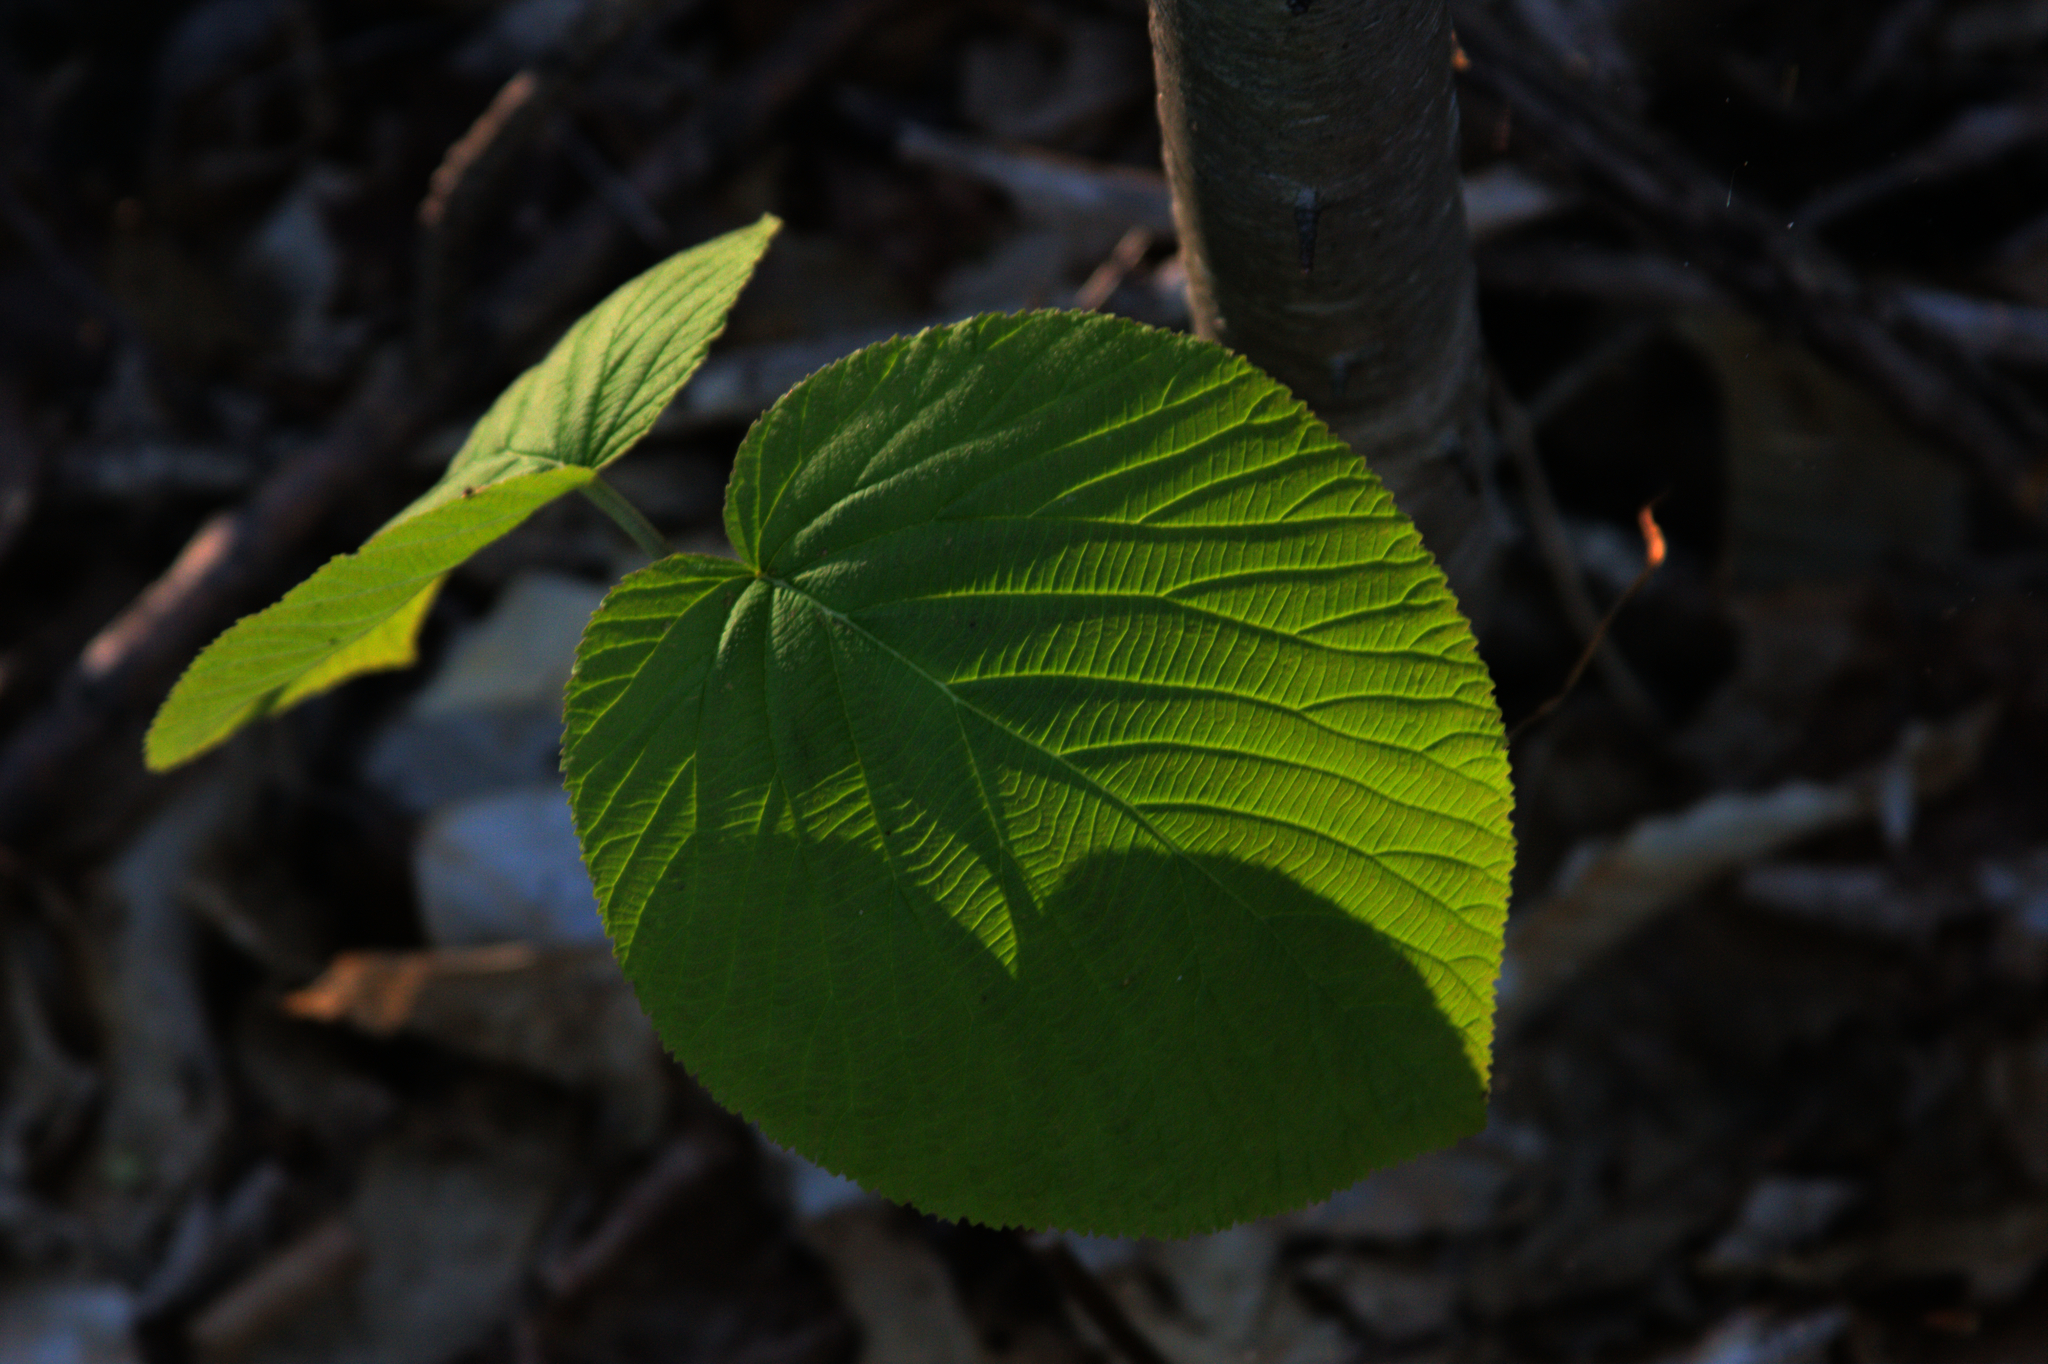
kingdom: Plantae
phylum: Tracheophyta
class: Magnoliopsida
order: Dipsacales
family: Viburnaceae
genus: Viburnum
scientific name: Viburnum lantanoides
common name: Hobblebush
